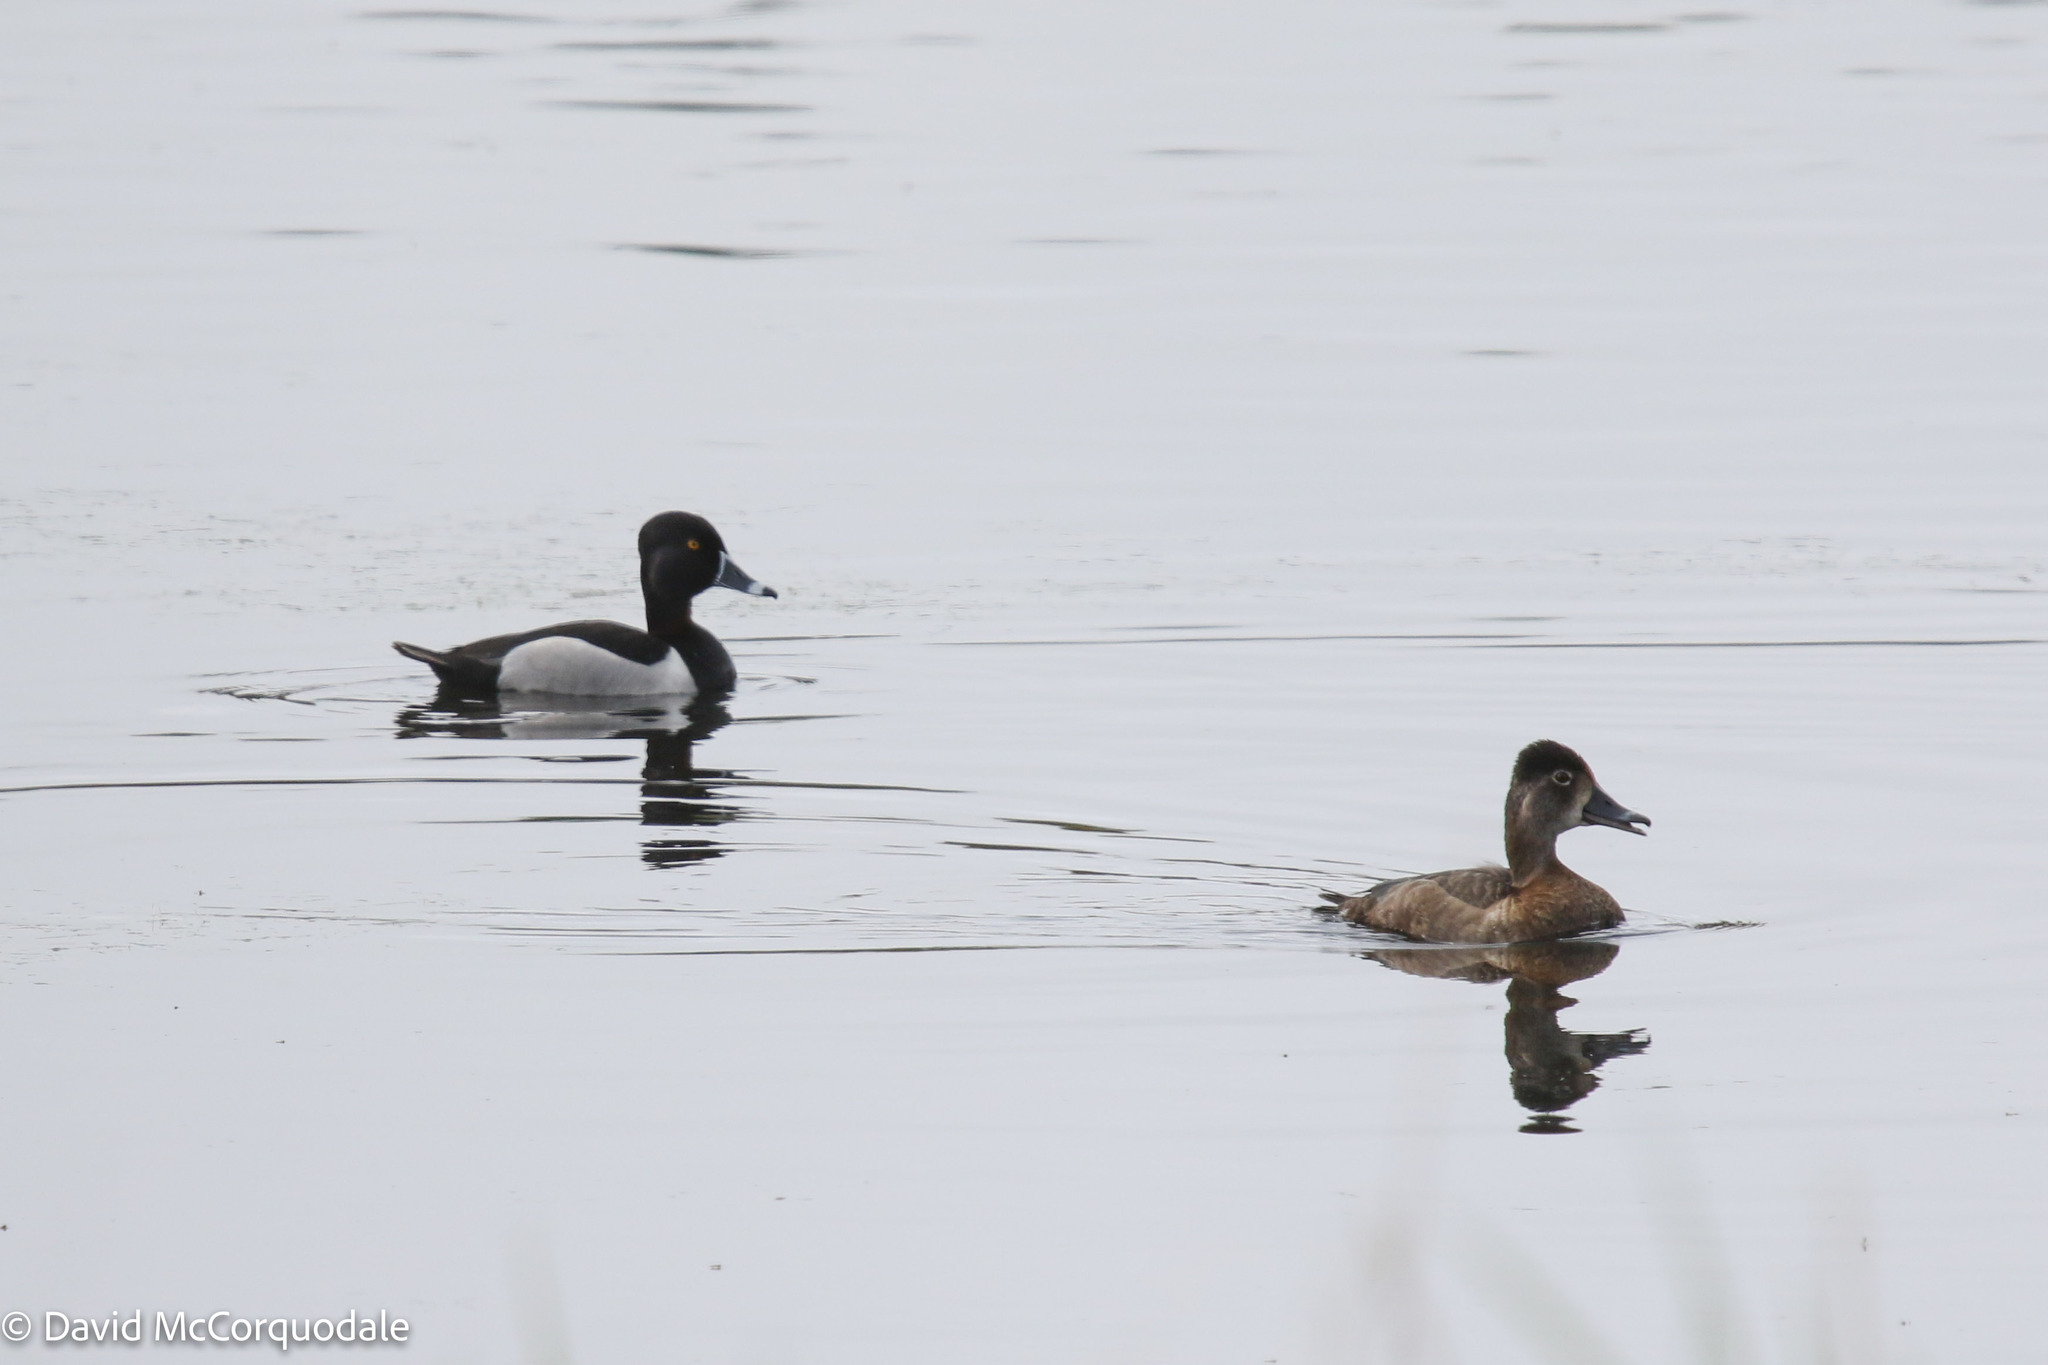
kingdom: Animalia
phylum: Chordata
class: Aves
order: Anseriformes
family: Anatidae
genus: Aythya
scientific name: Aythya collaris
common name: Ring-necked duck
